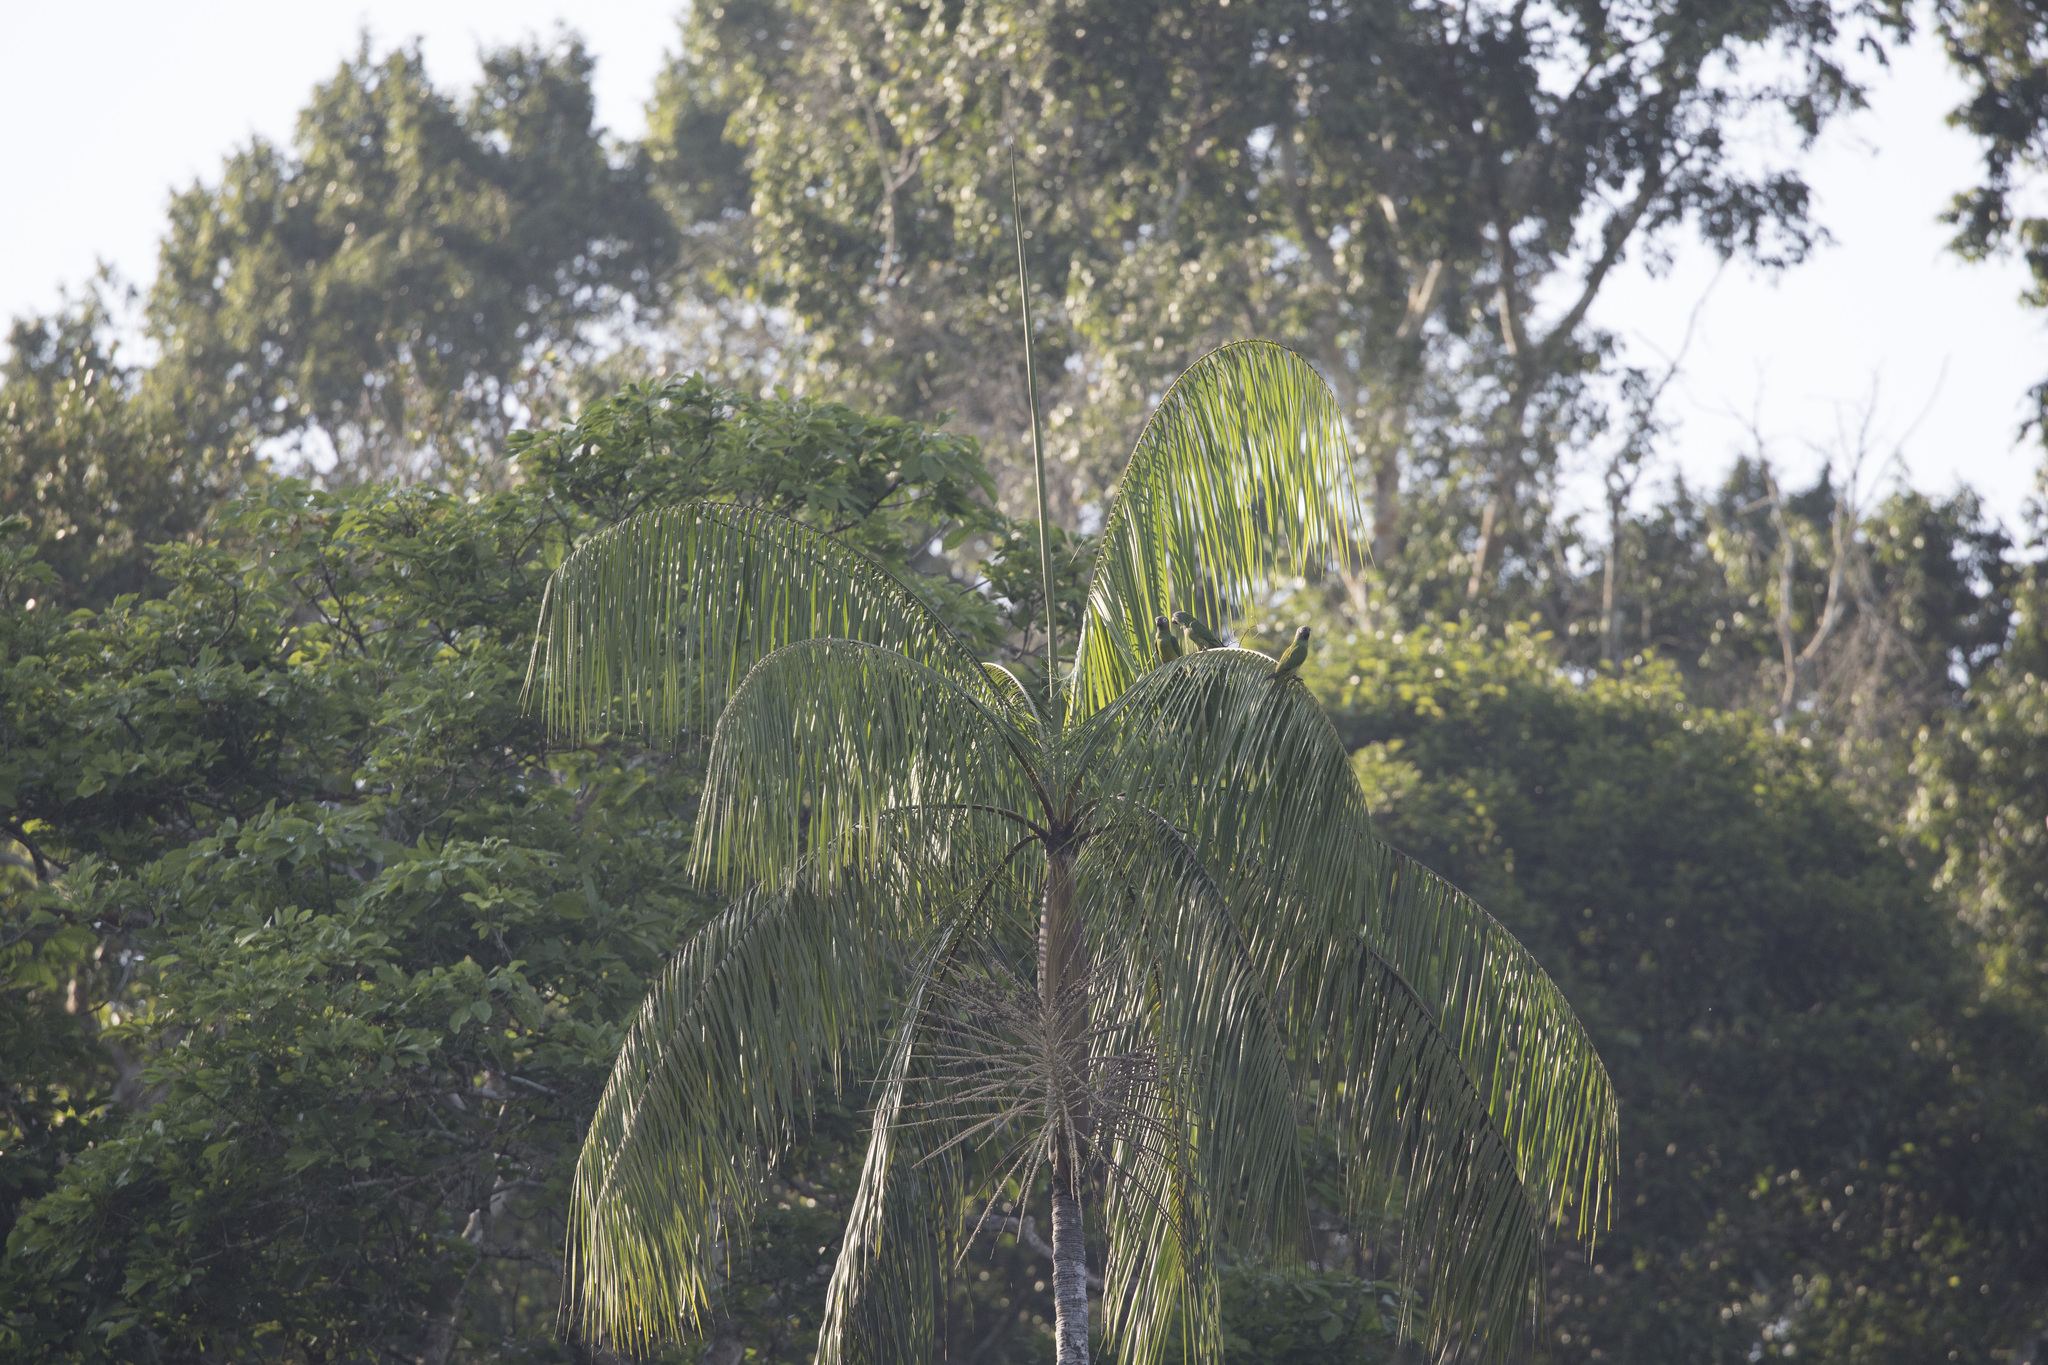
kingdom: Animalia
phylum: Chordata
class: Aves
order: Psittaciformes
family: Psittacidae
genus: Aratinga
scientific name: Aratinga weddellii
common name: Dusky-headed parakeet
